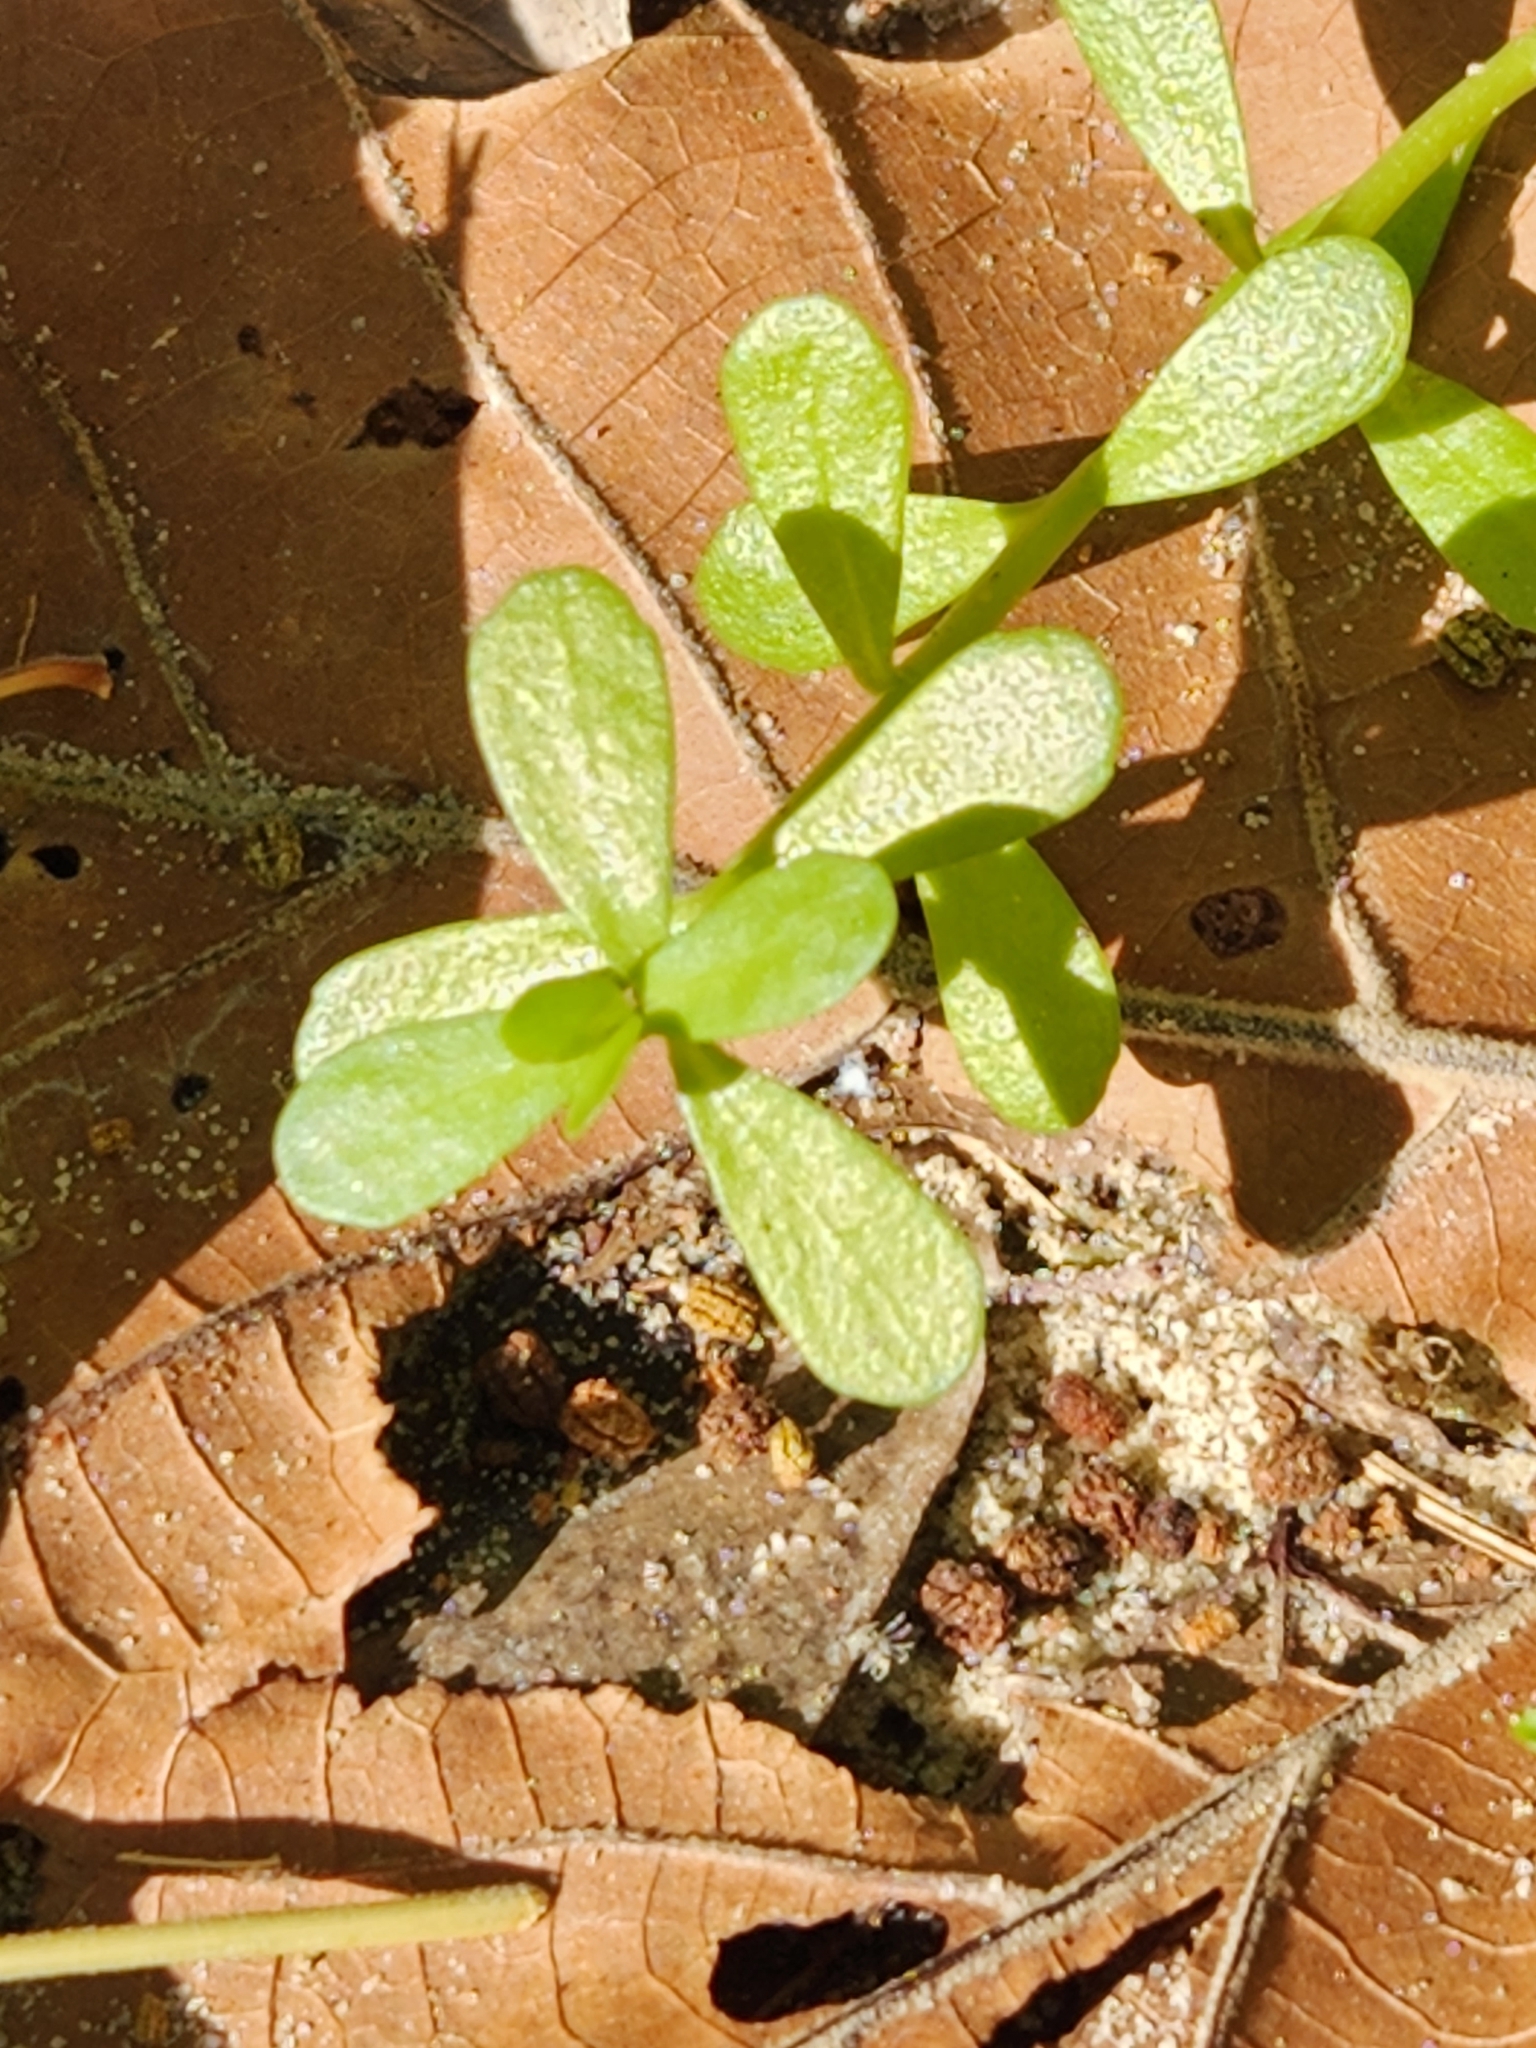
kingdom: Plantae
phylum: Tracheophyta
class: Magnoliopsida
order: Caryophyllales
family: Portulacaceae
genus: Portulaca
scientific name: Portulaca oleracea
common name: Common purslane
